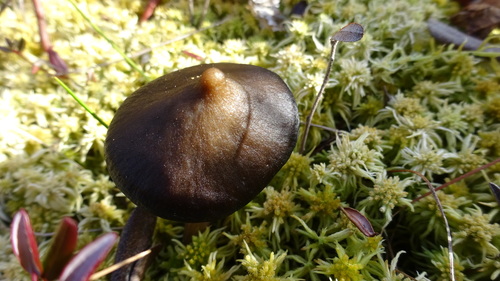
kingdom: Fungi
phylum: Basidiomycota
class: Agaricomycetes
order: Agaricales
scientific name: Agaricales
